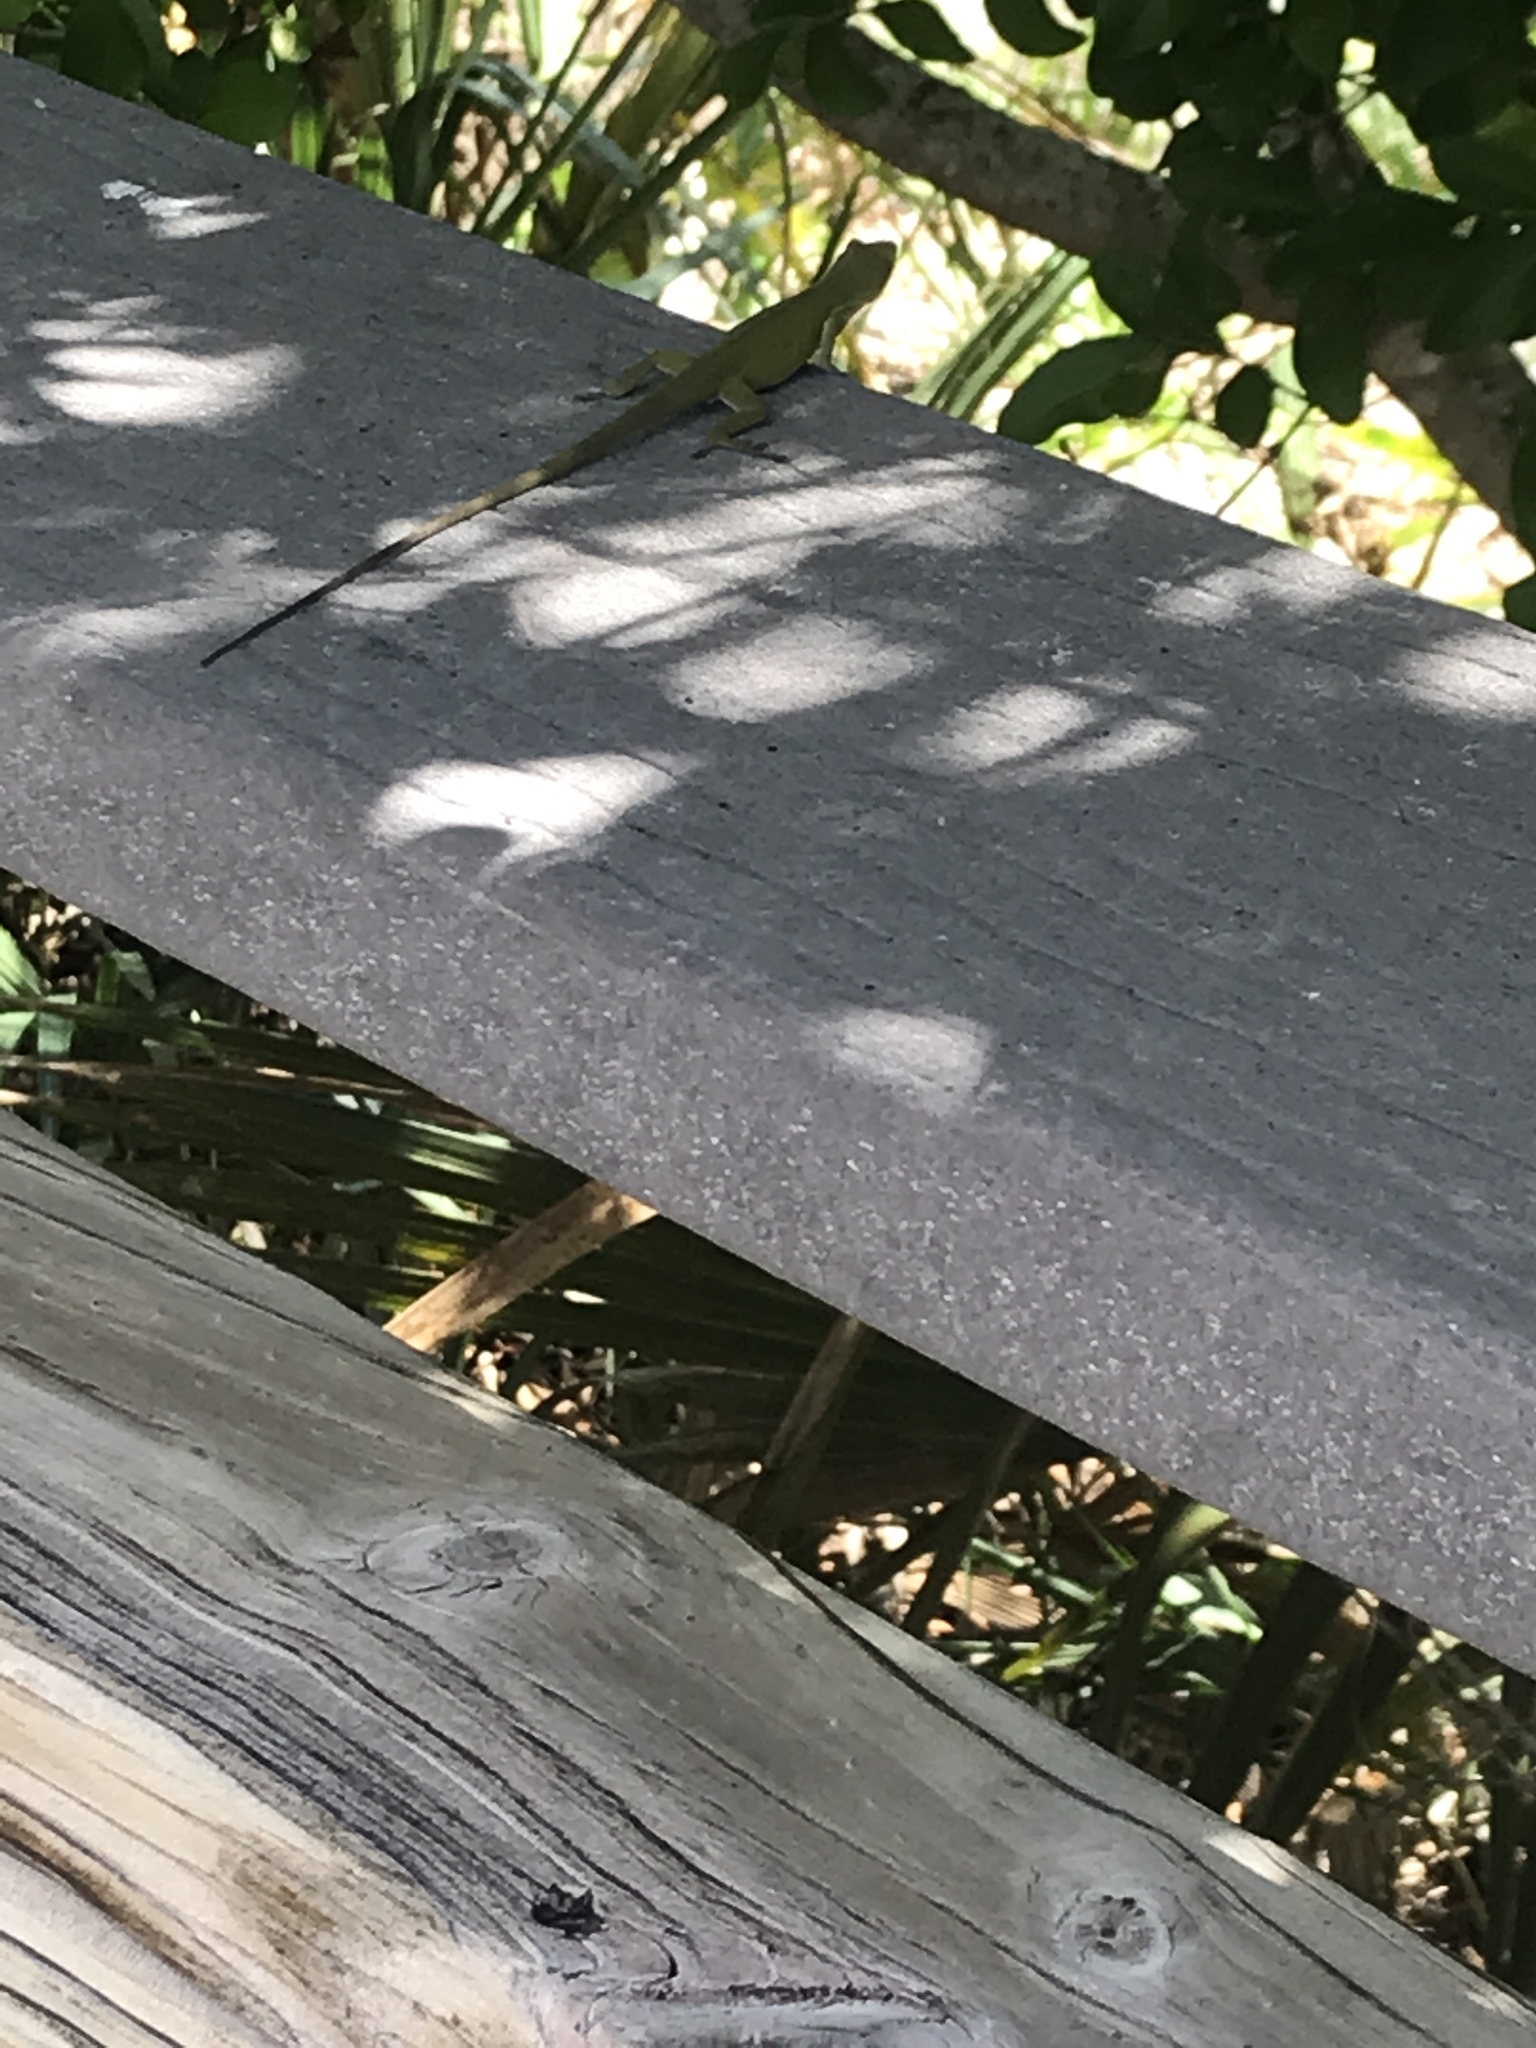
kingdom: Animalia
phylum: Chordata
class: Squamata
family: Dactyloidae
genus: Anolis
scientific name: Anolis carolinensis
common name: Green anole
